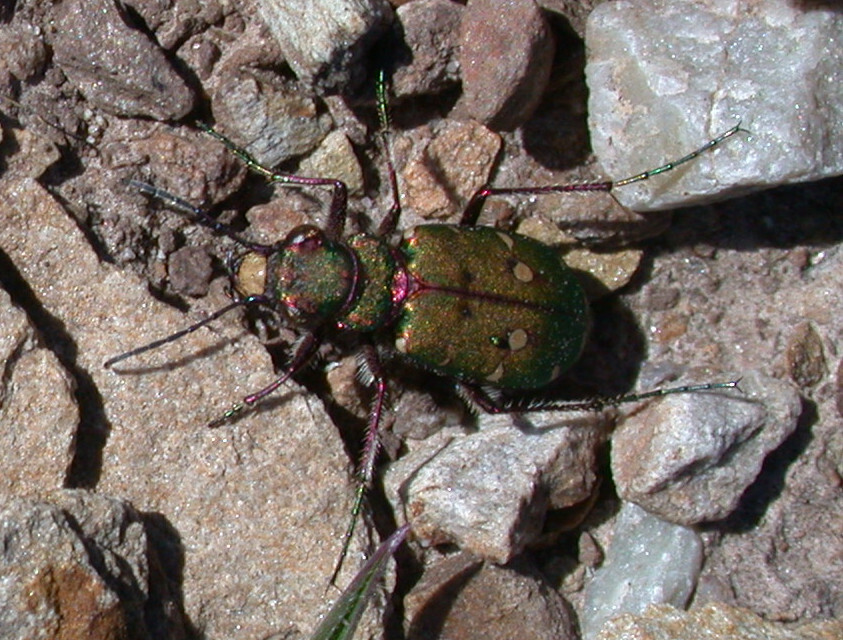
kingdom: Animalia
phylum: Arthropoda
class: Insecta
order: Coleoptera
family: Carabidae
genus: Cicindela
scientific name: Cicindela campestris
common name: Common tiger beetle
